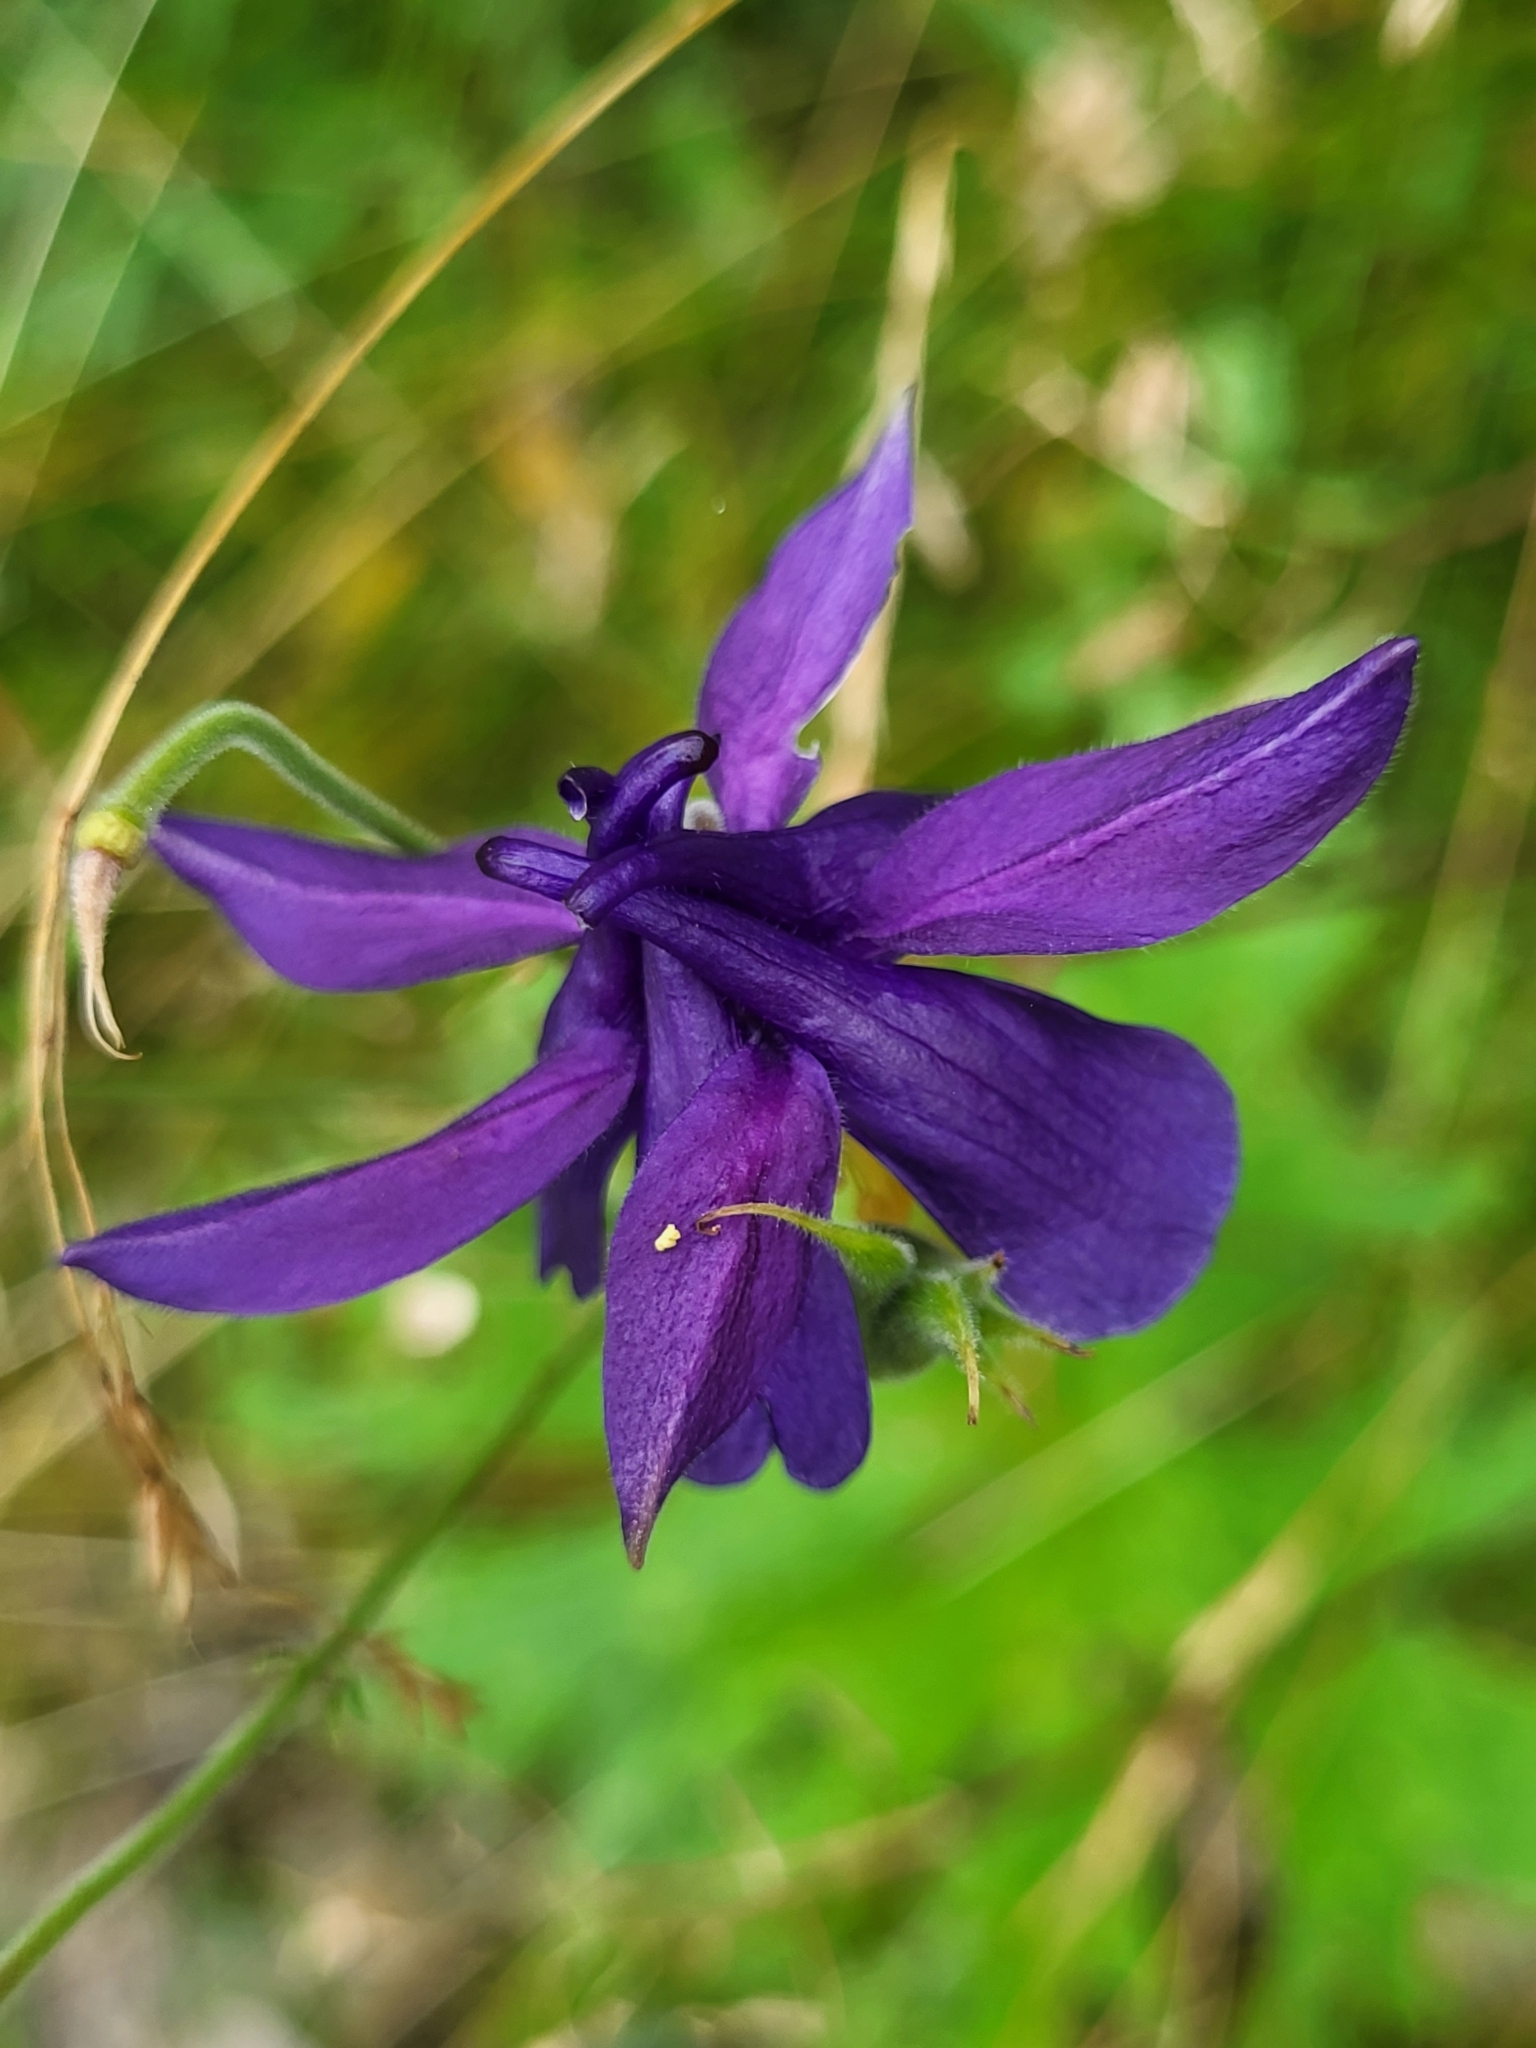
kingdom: Plantae
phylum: Tracheophyta
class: Magnoliopsida
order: Ranunculales
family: Ranunculaceae
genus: Aquilegia
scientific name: Aquilegia einseleana
